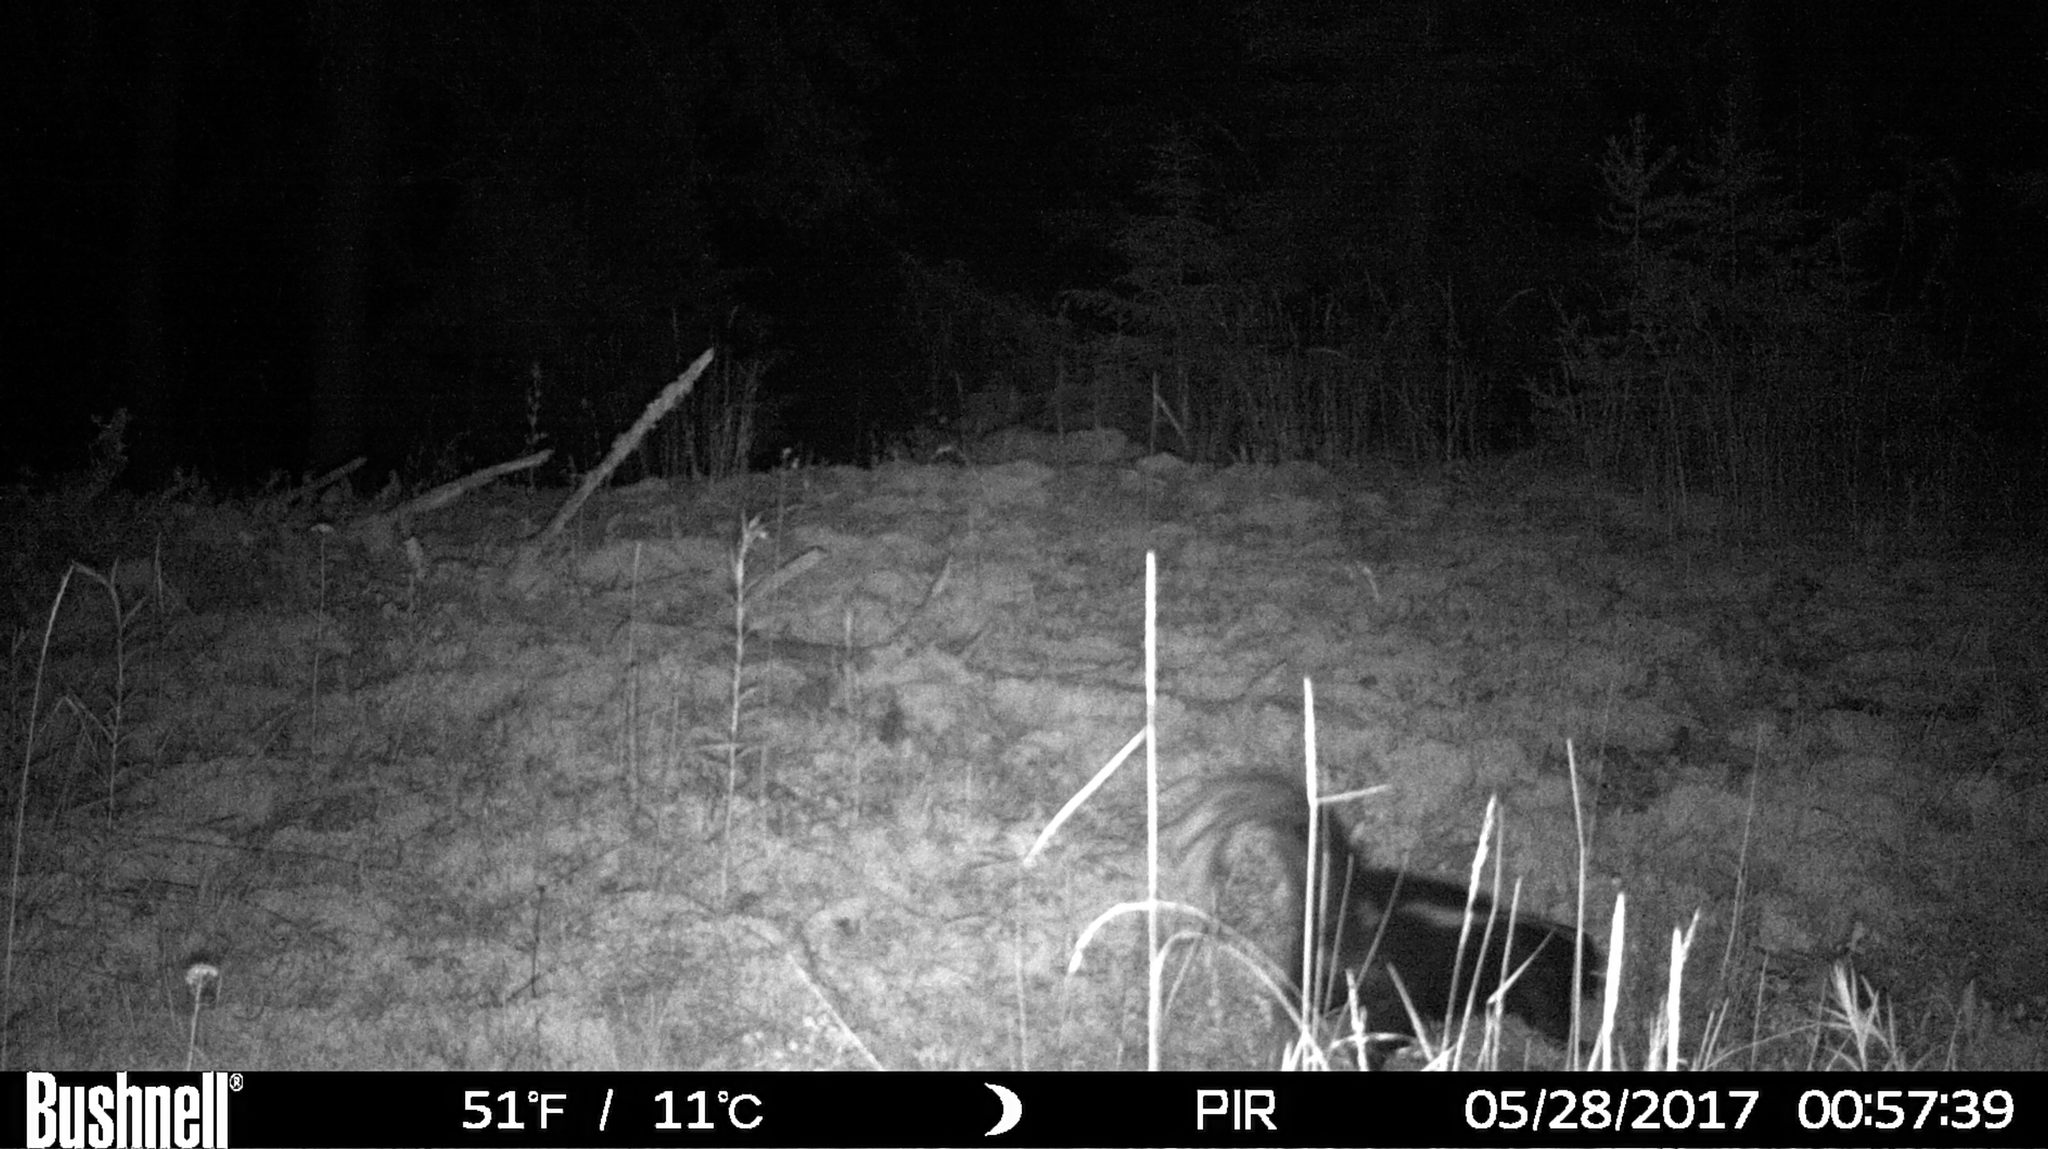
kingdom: Animalia
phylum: Chordata
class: Mammalia
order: Carnivora
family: Mephitidae
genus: Mephitis
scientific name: Mephitis mephitis
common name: Striped skunk
